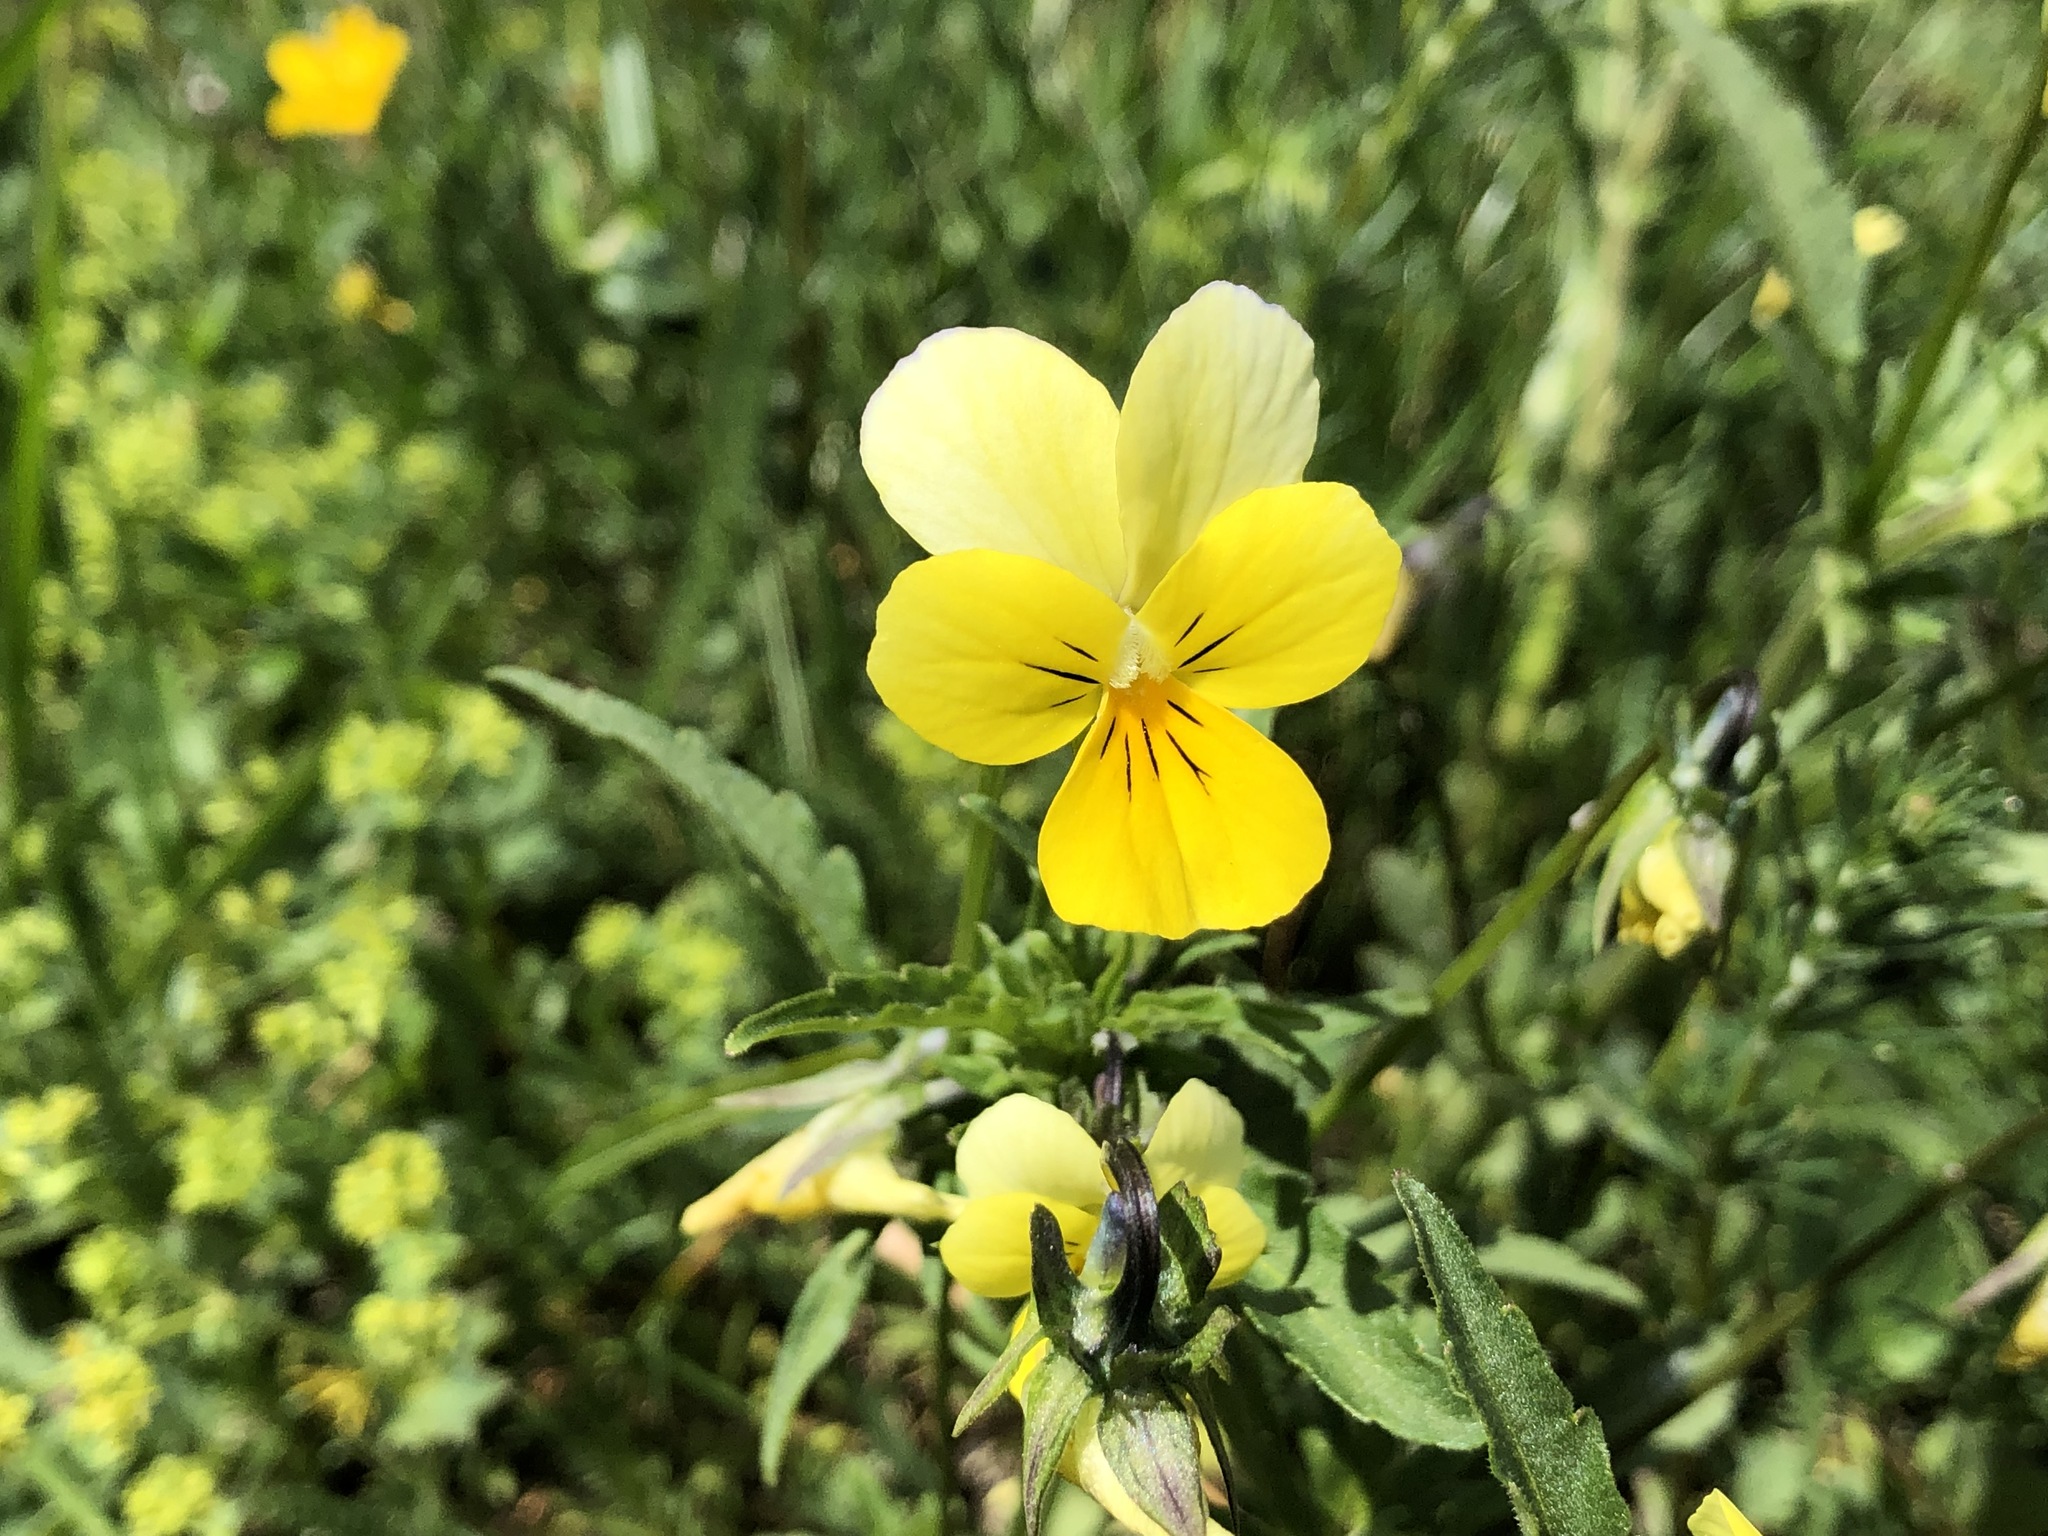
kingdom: Plantae
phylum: Tracheophyta
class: Magnoliopsida
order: Malpighiales
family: Violaceae
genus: Viola
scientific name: Viola tricolor
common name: Pansy
